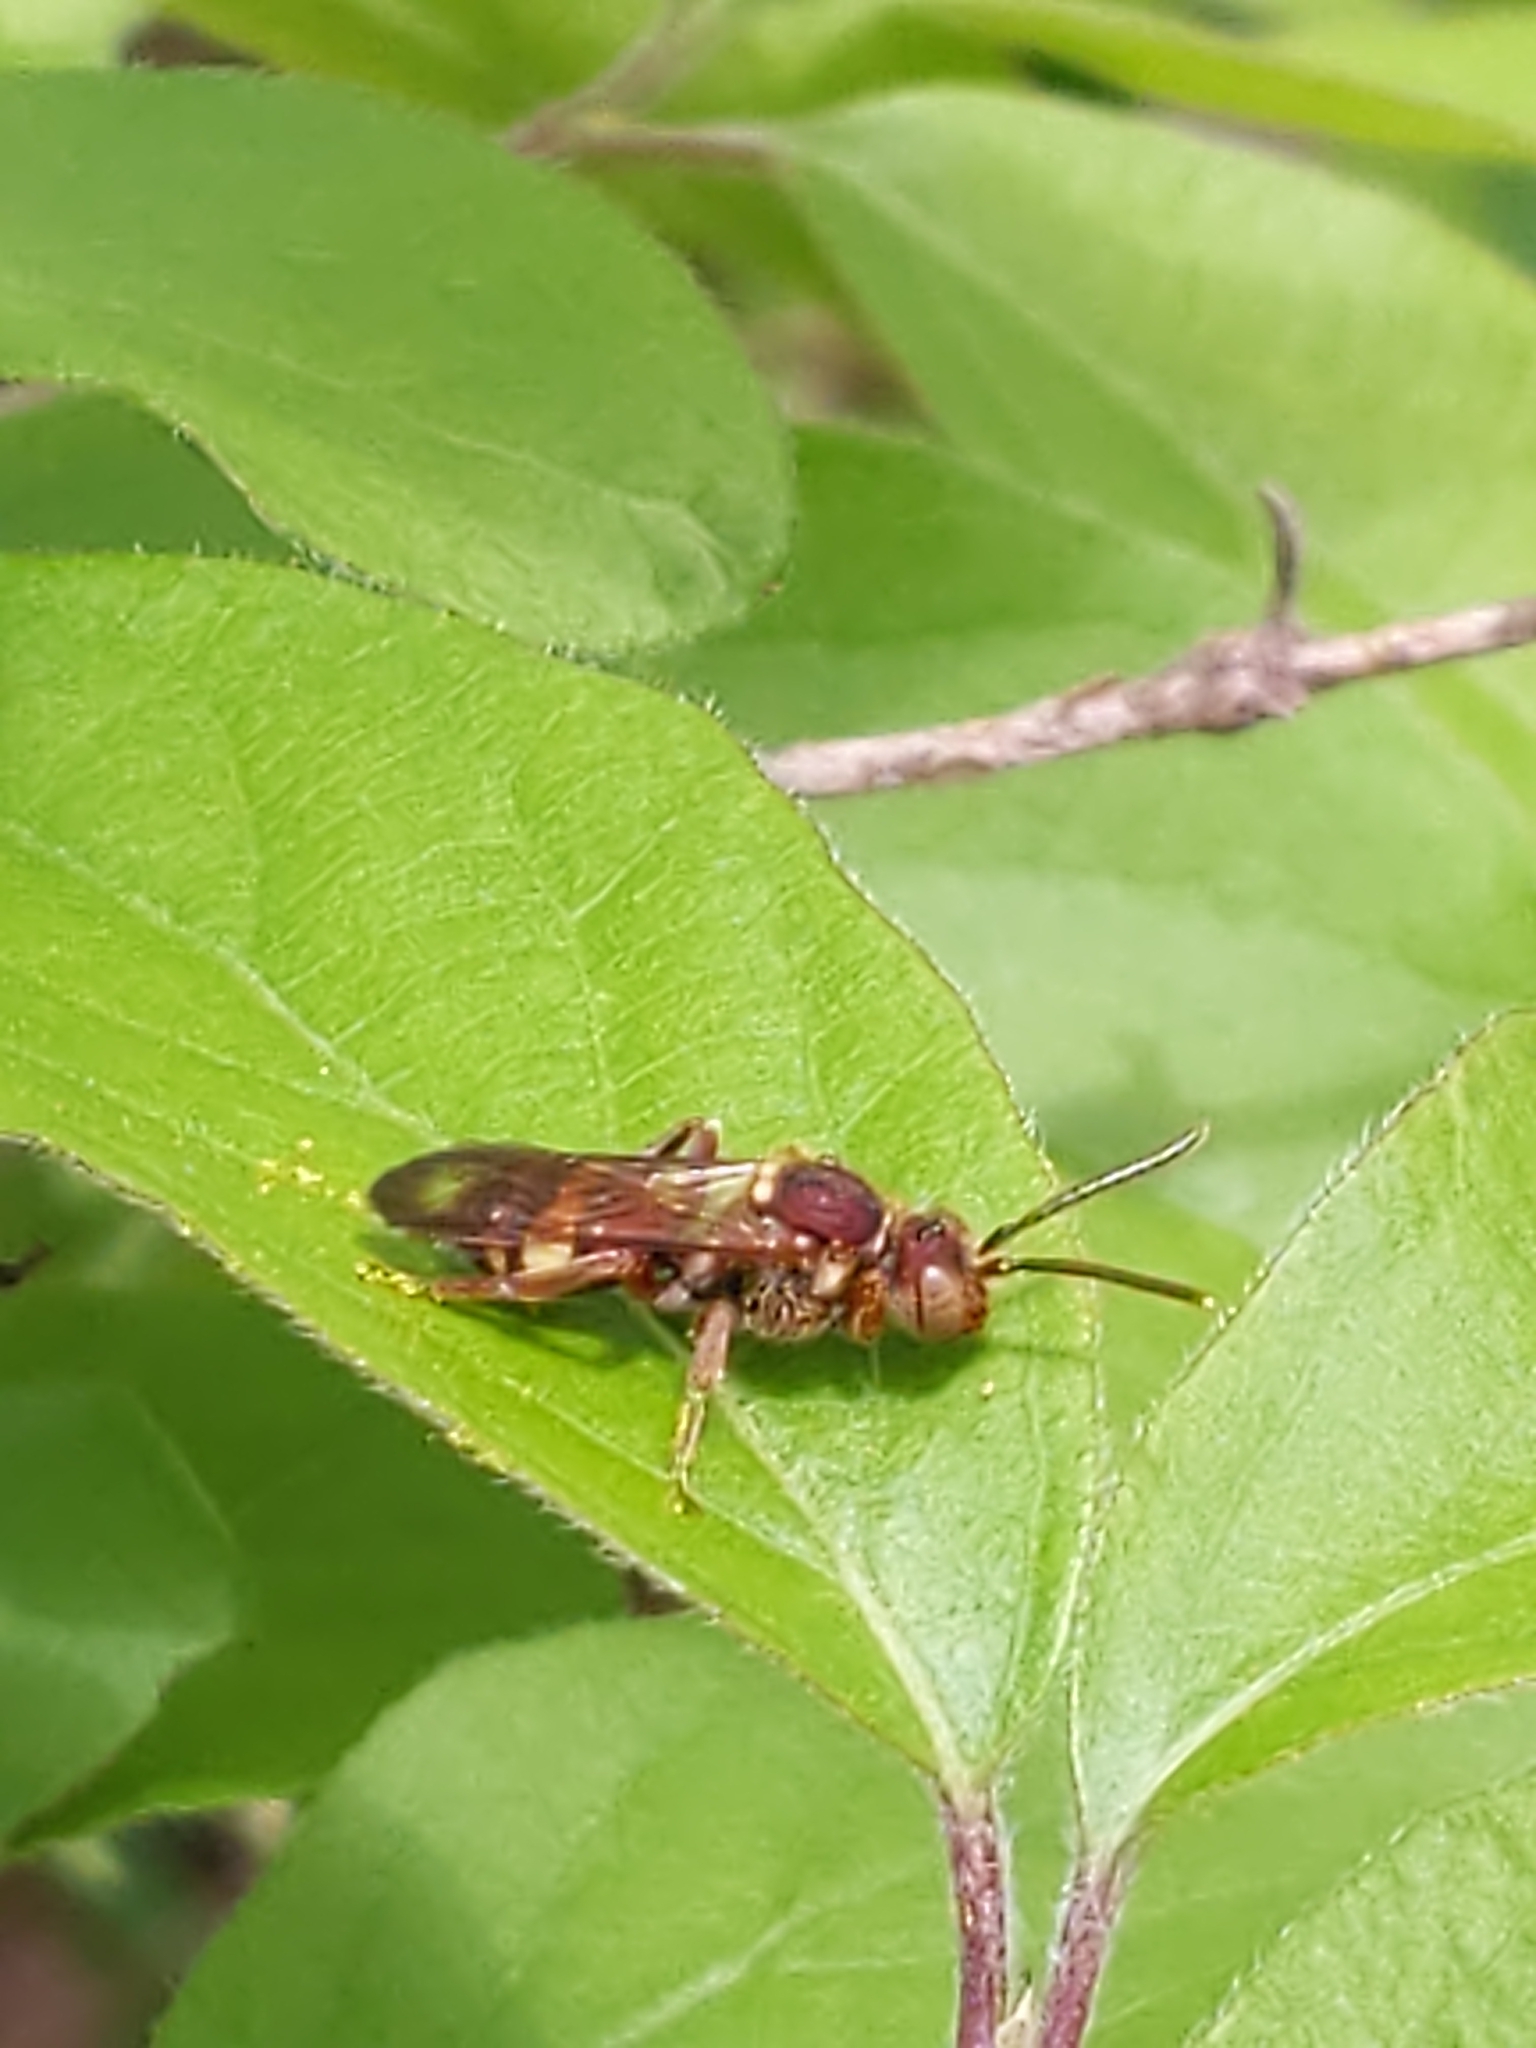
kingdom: Animalia
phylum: Arthropoda
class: Insecta
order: Hymenoptera
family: Apidae
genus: Nomada
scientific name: Nomada
